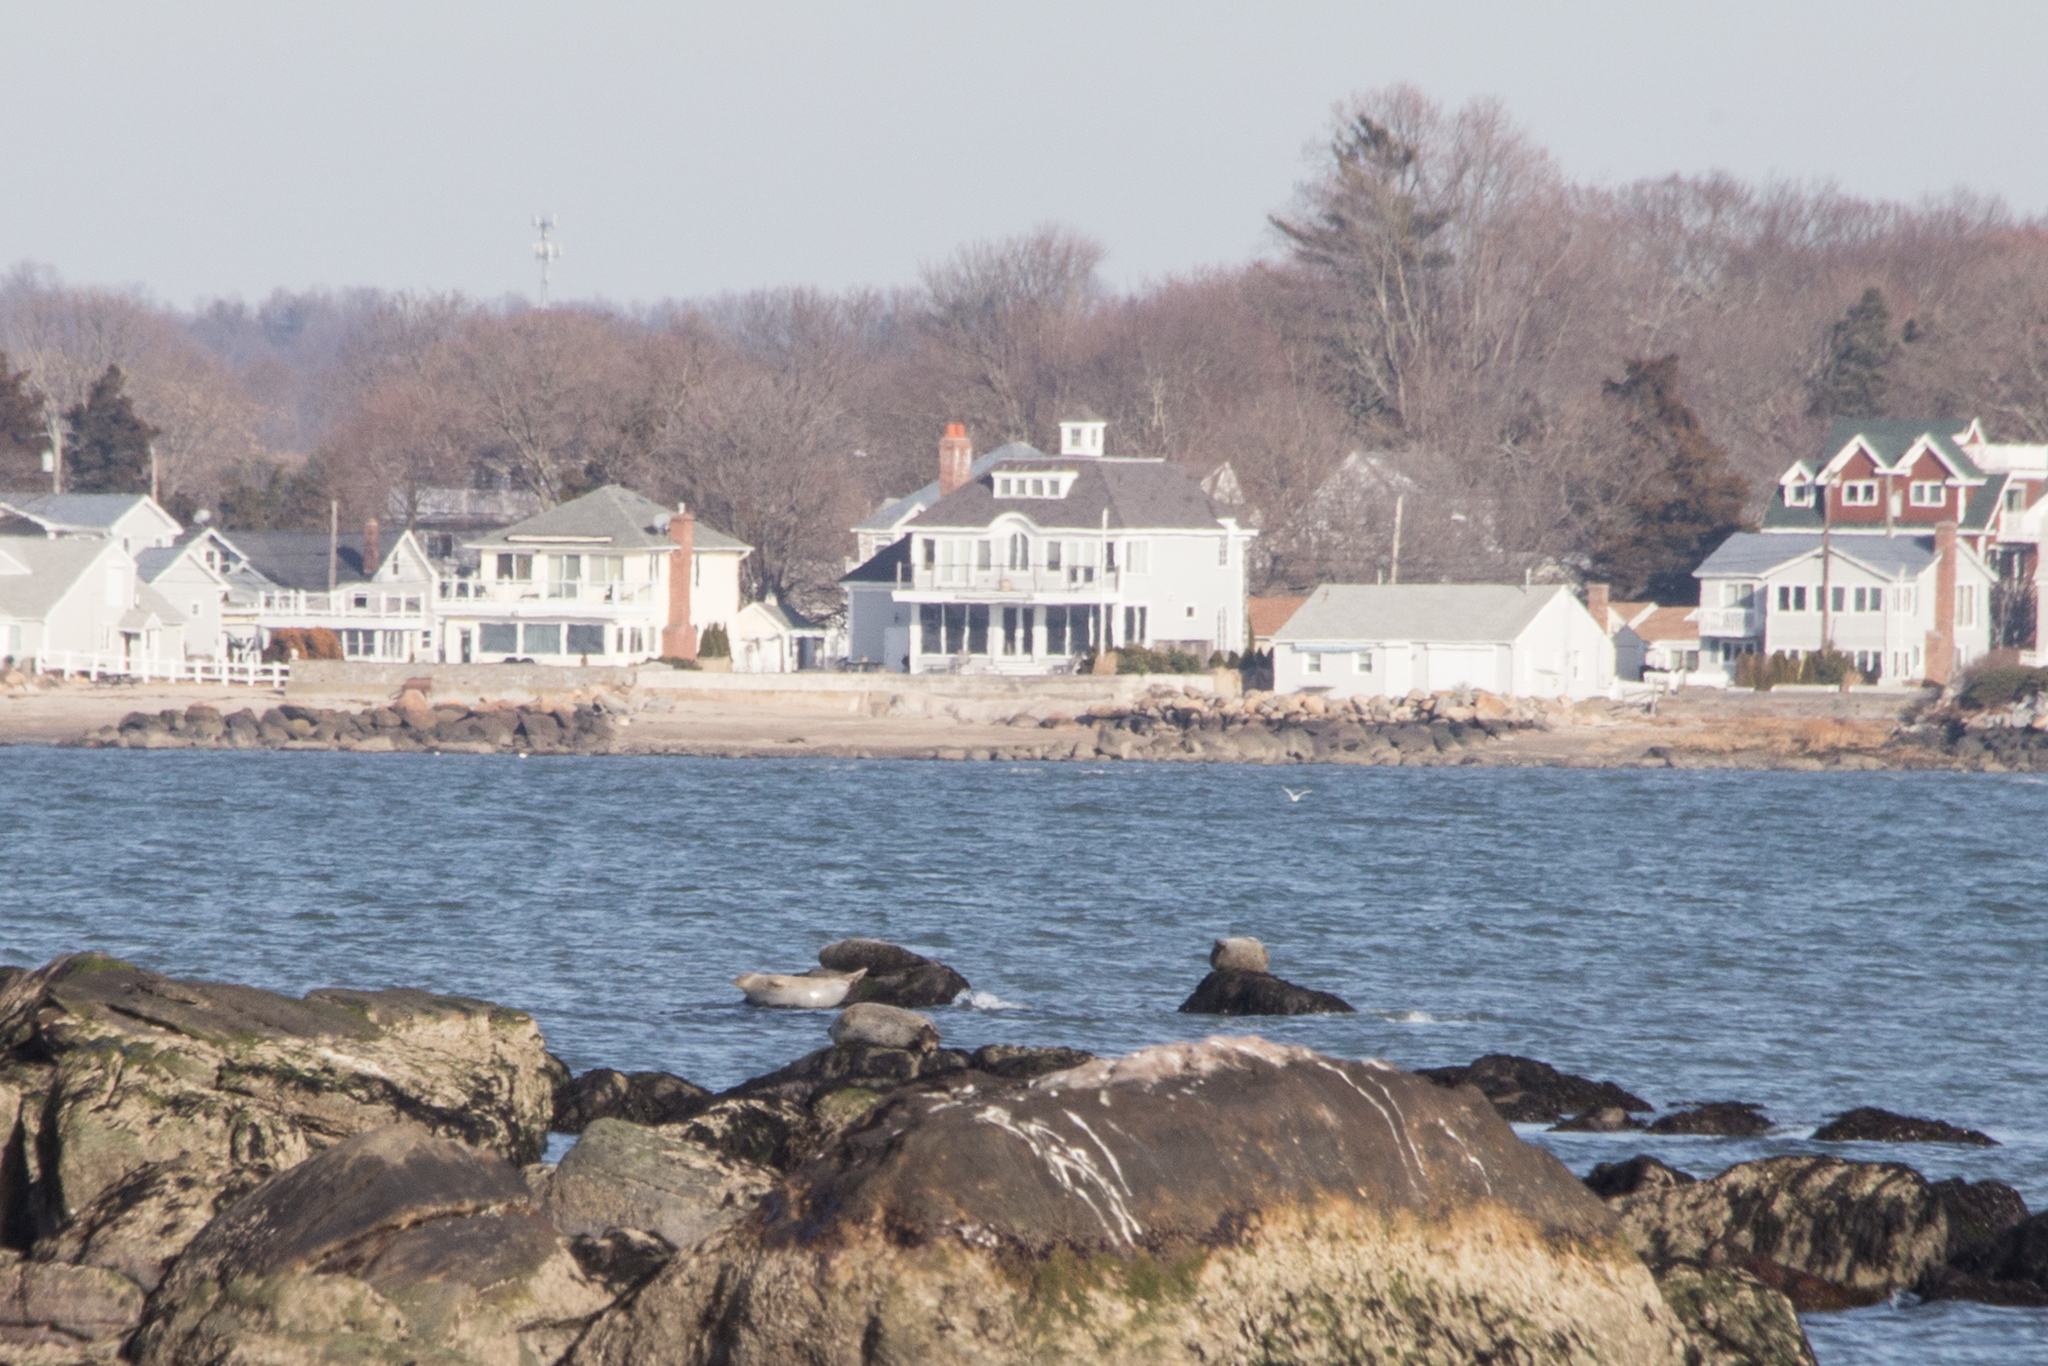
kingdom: Animalia
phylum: Chordata
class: Mammalia
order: Carnivora
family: Phocidae
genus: Phoca
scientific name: Phoca vitulina
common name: Harbor seal
